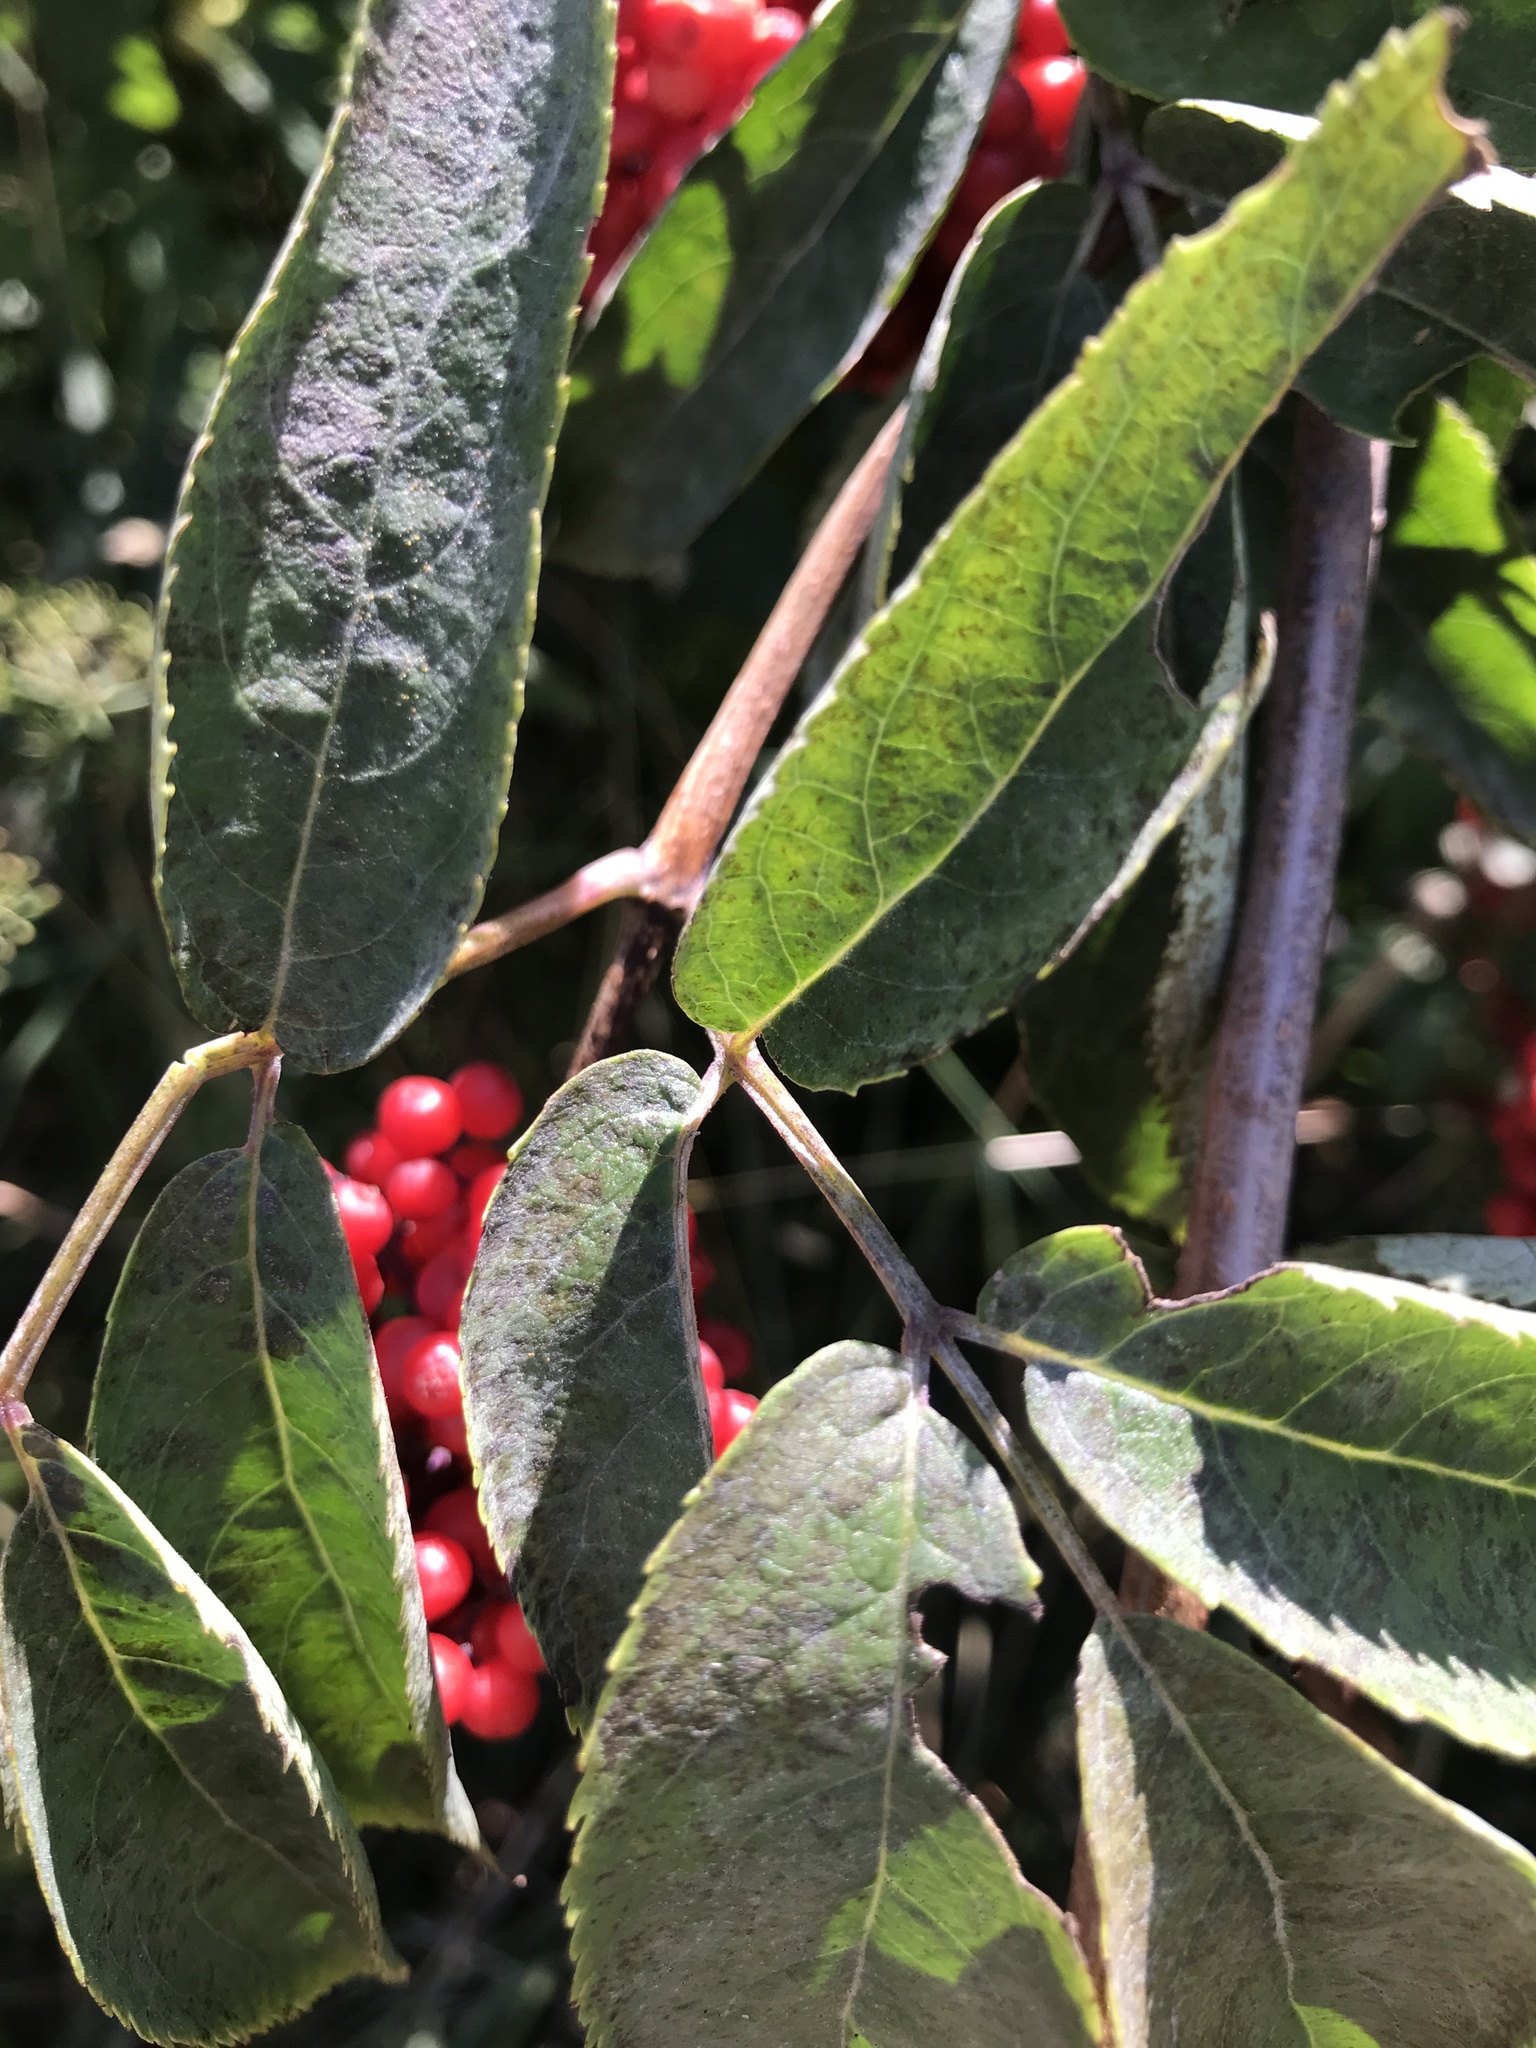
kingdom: Plantae
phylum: Tracheophyta
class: Magnoliopsida
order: Dipsacales
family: Viburnaceae
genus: Sambucus
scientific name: Sambucus racemosa
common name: Red-berried elder
